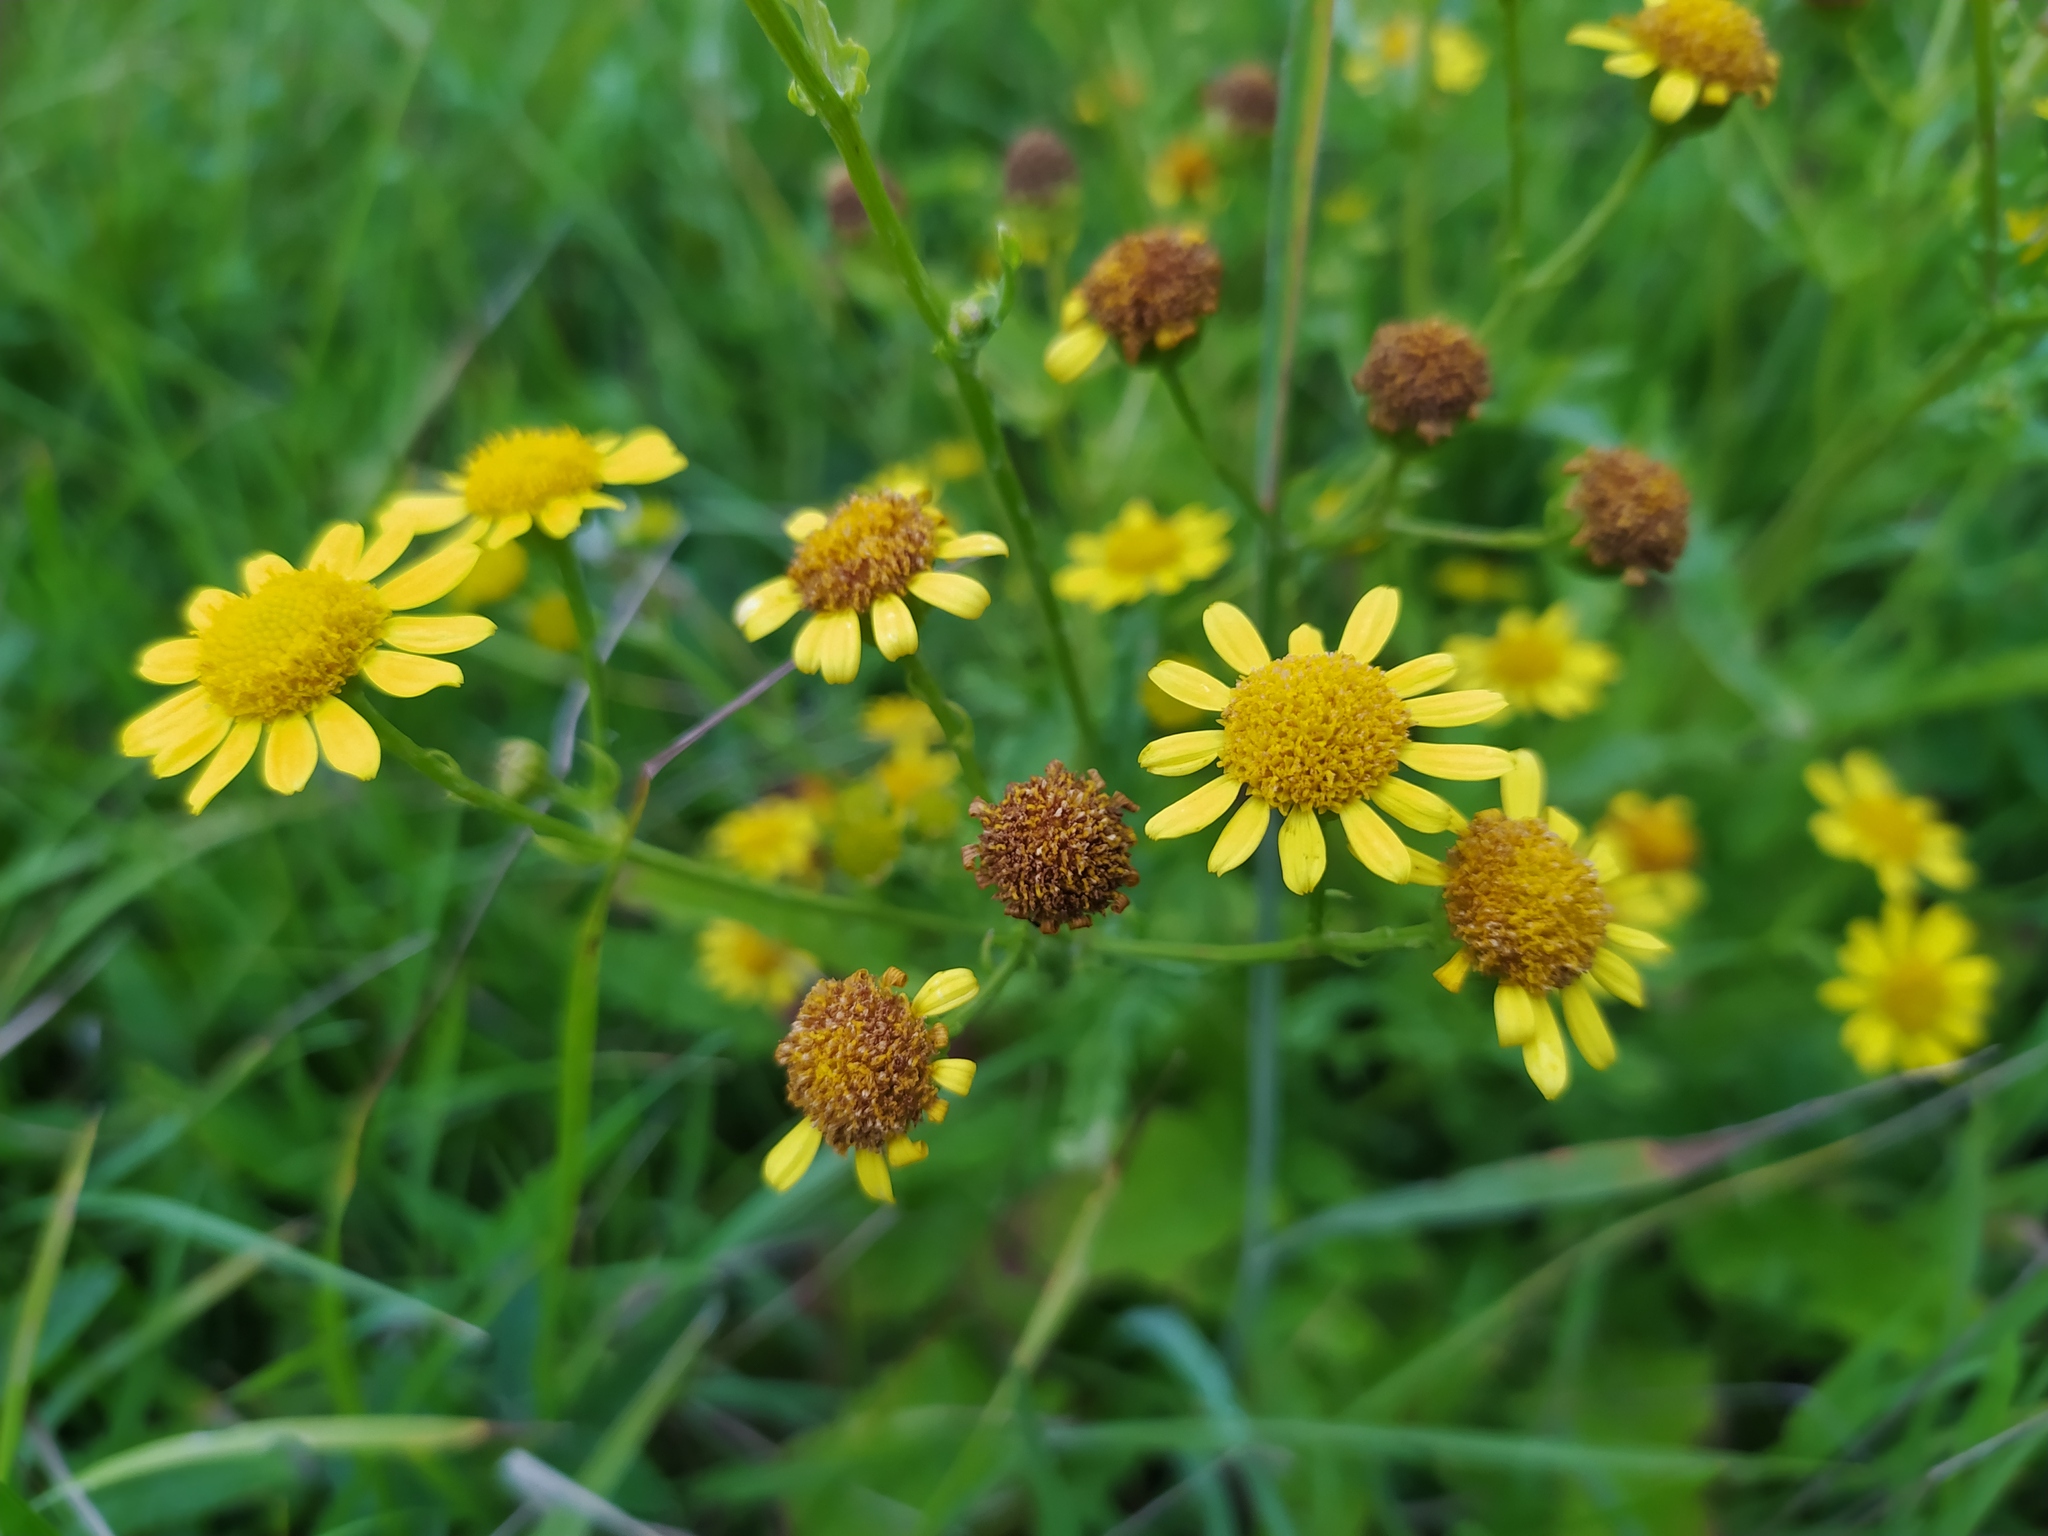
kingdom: Plantae
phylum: Tracheophyta
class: Magnoliopsida
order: Asterales
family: Asteraceae
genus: Jacobaea
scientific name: Jacobaea aquatica
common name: Water ragwort
